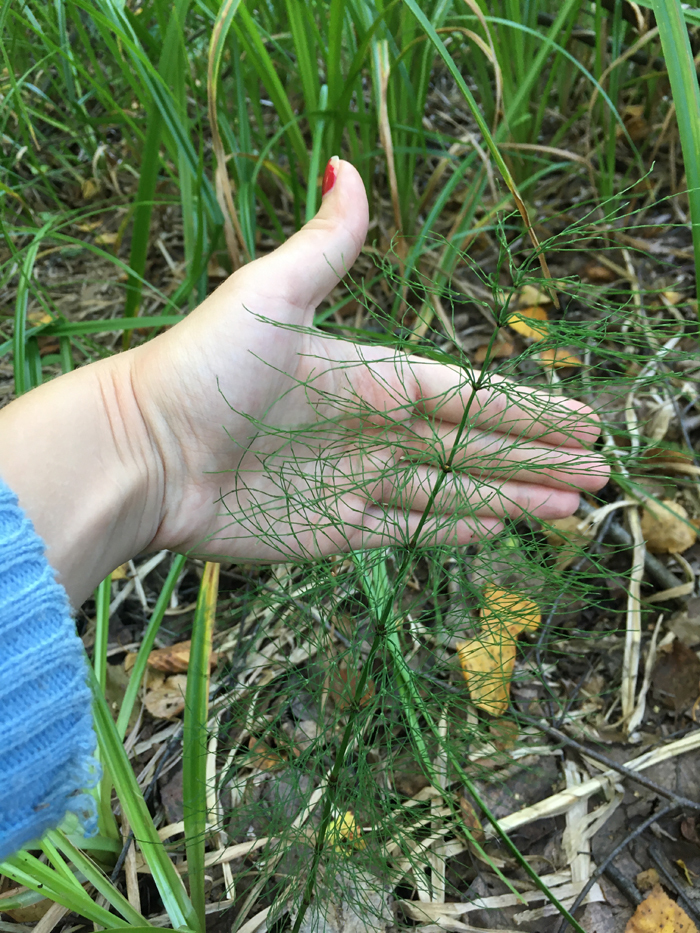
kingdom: Plantae
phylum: Tracheophyta
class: Polypodiopsida
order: Equisetales
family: Equisetaceae
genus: Equisetum
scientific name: Equisetum sylvaticum
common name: Wood horsetail
